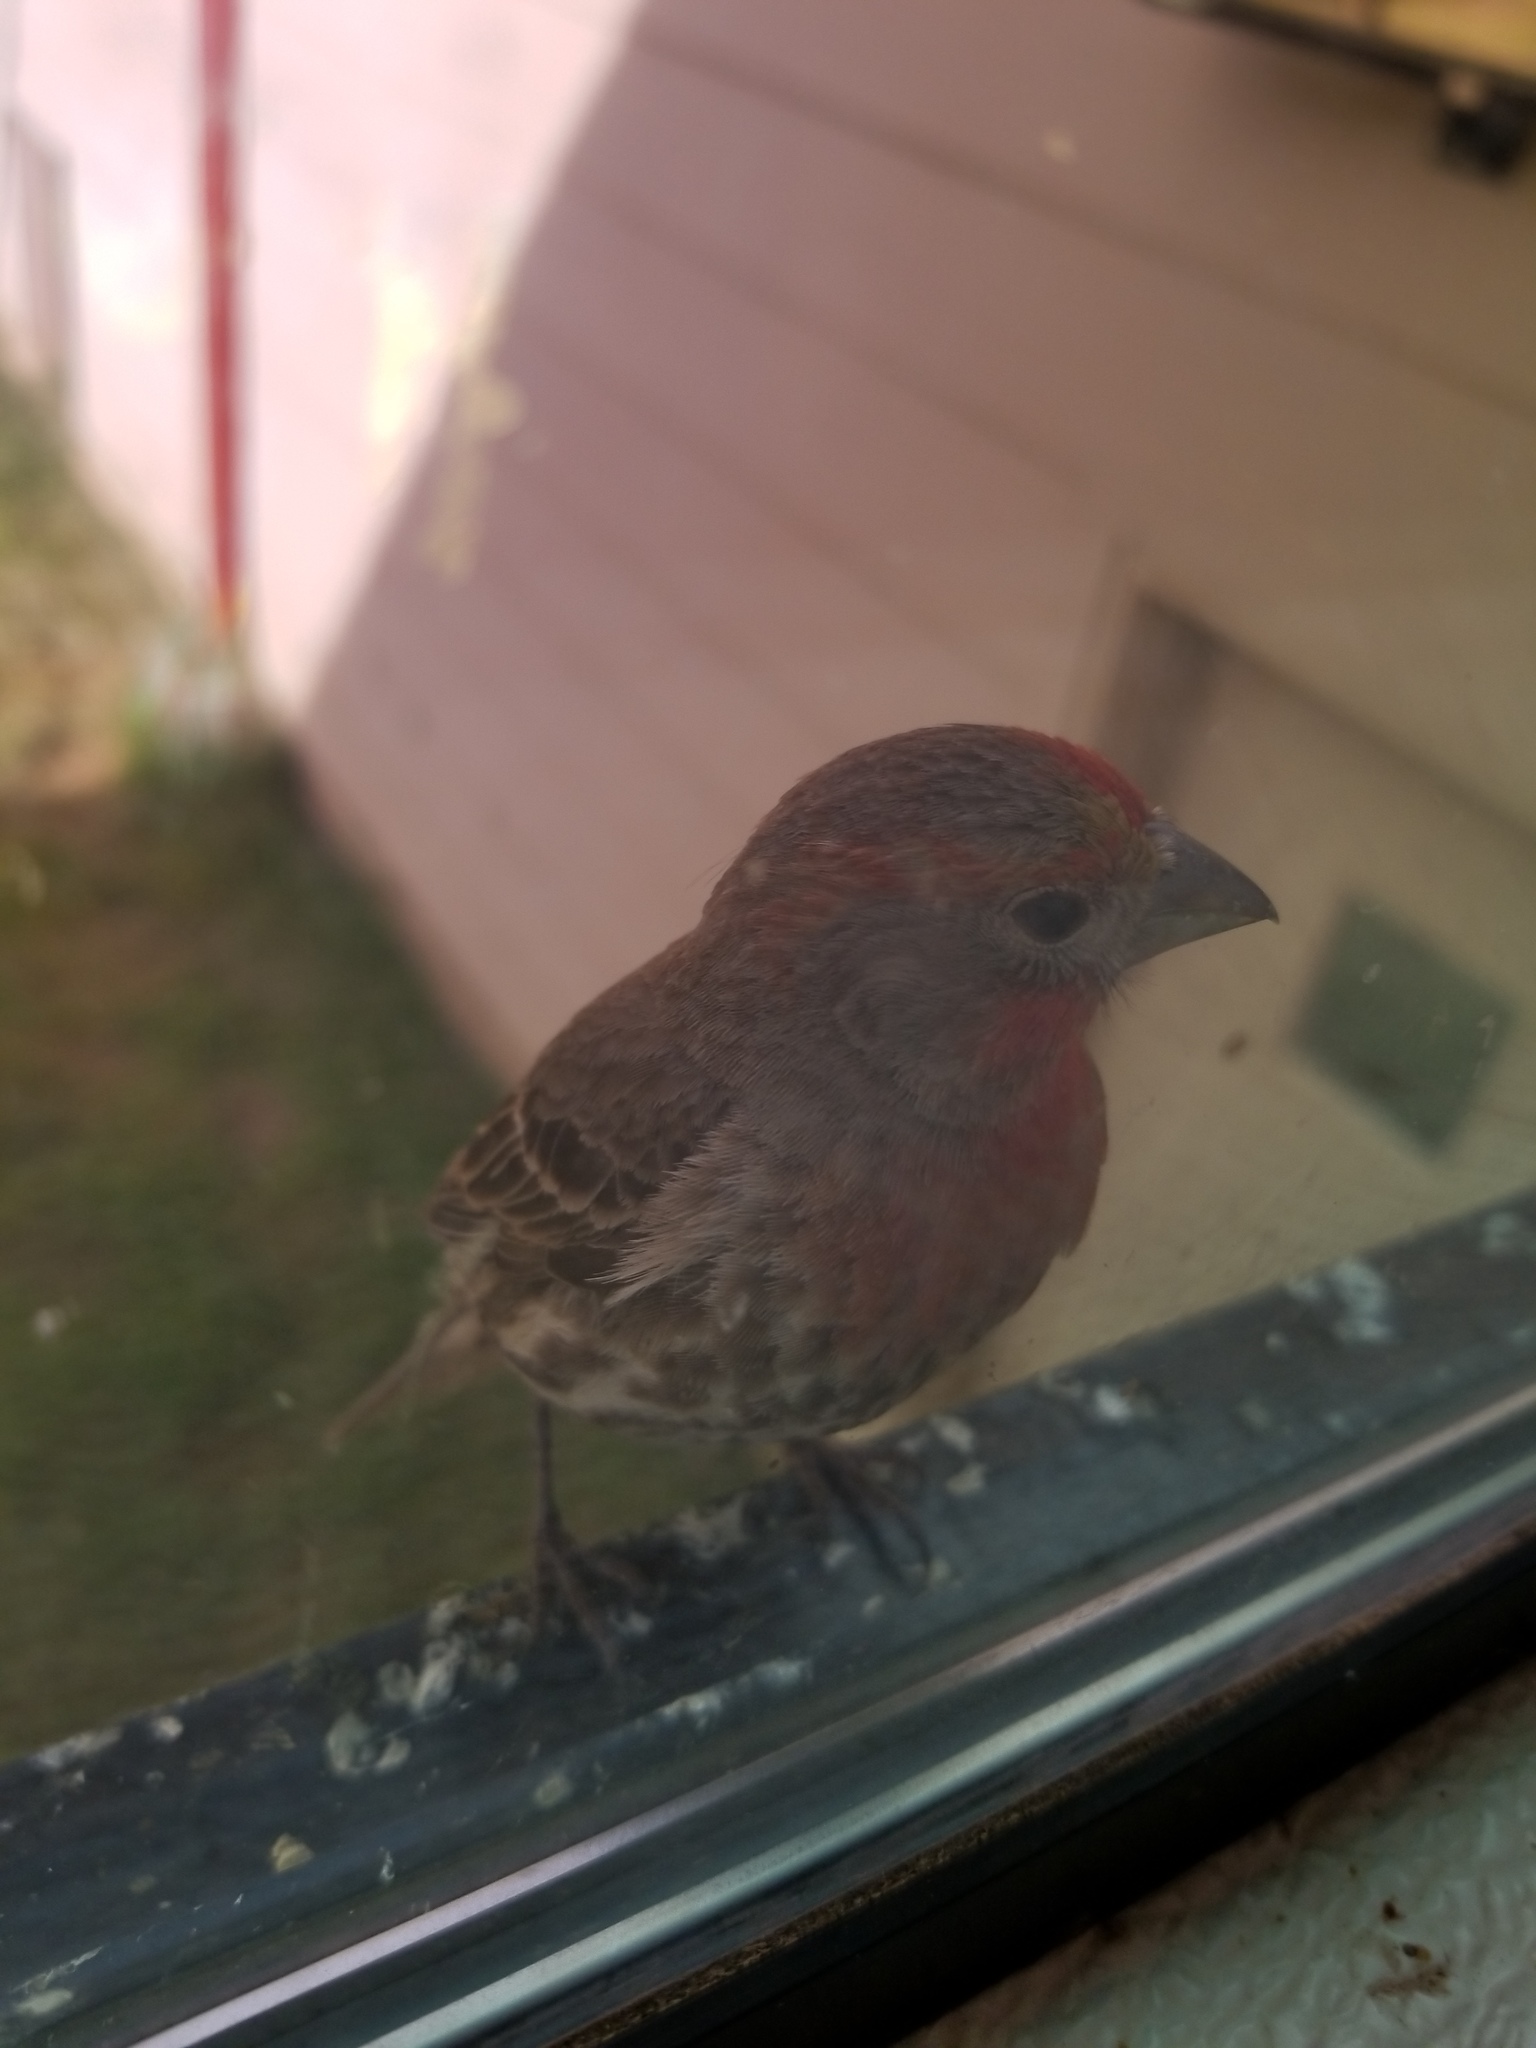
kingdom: Animalia
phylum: Chordata
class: Aves
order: Passeriformes
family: Fringillidae
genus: Haemorhous
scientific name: Haemorhous mexicanus
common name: House finch
